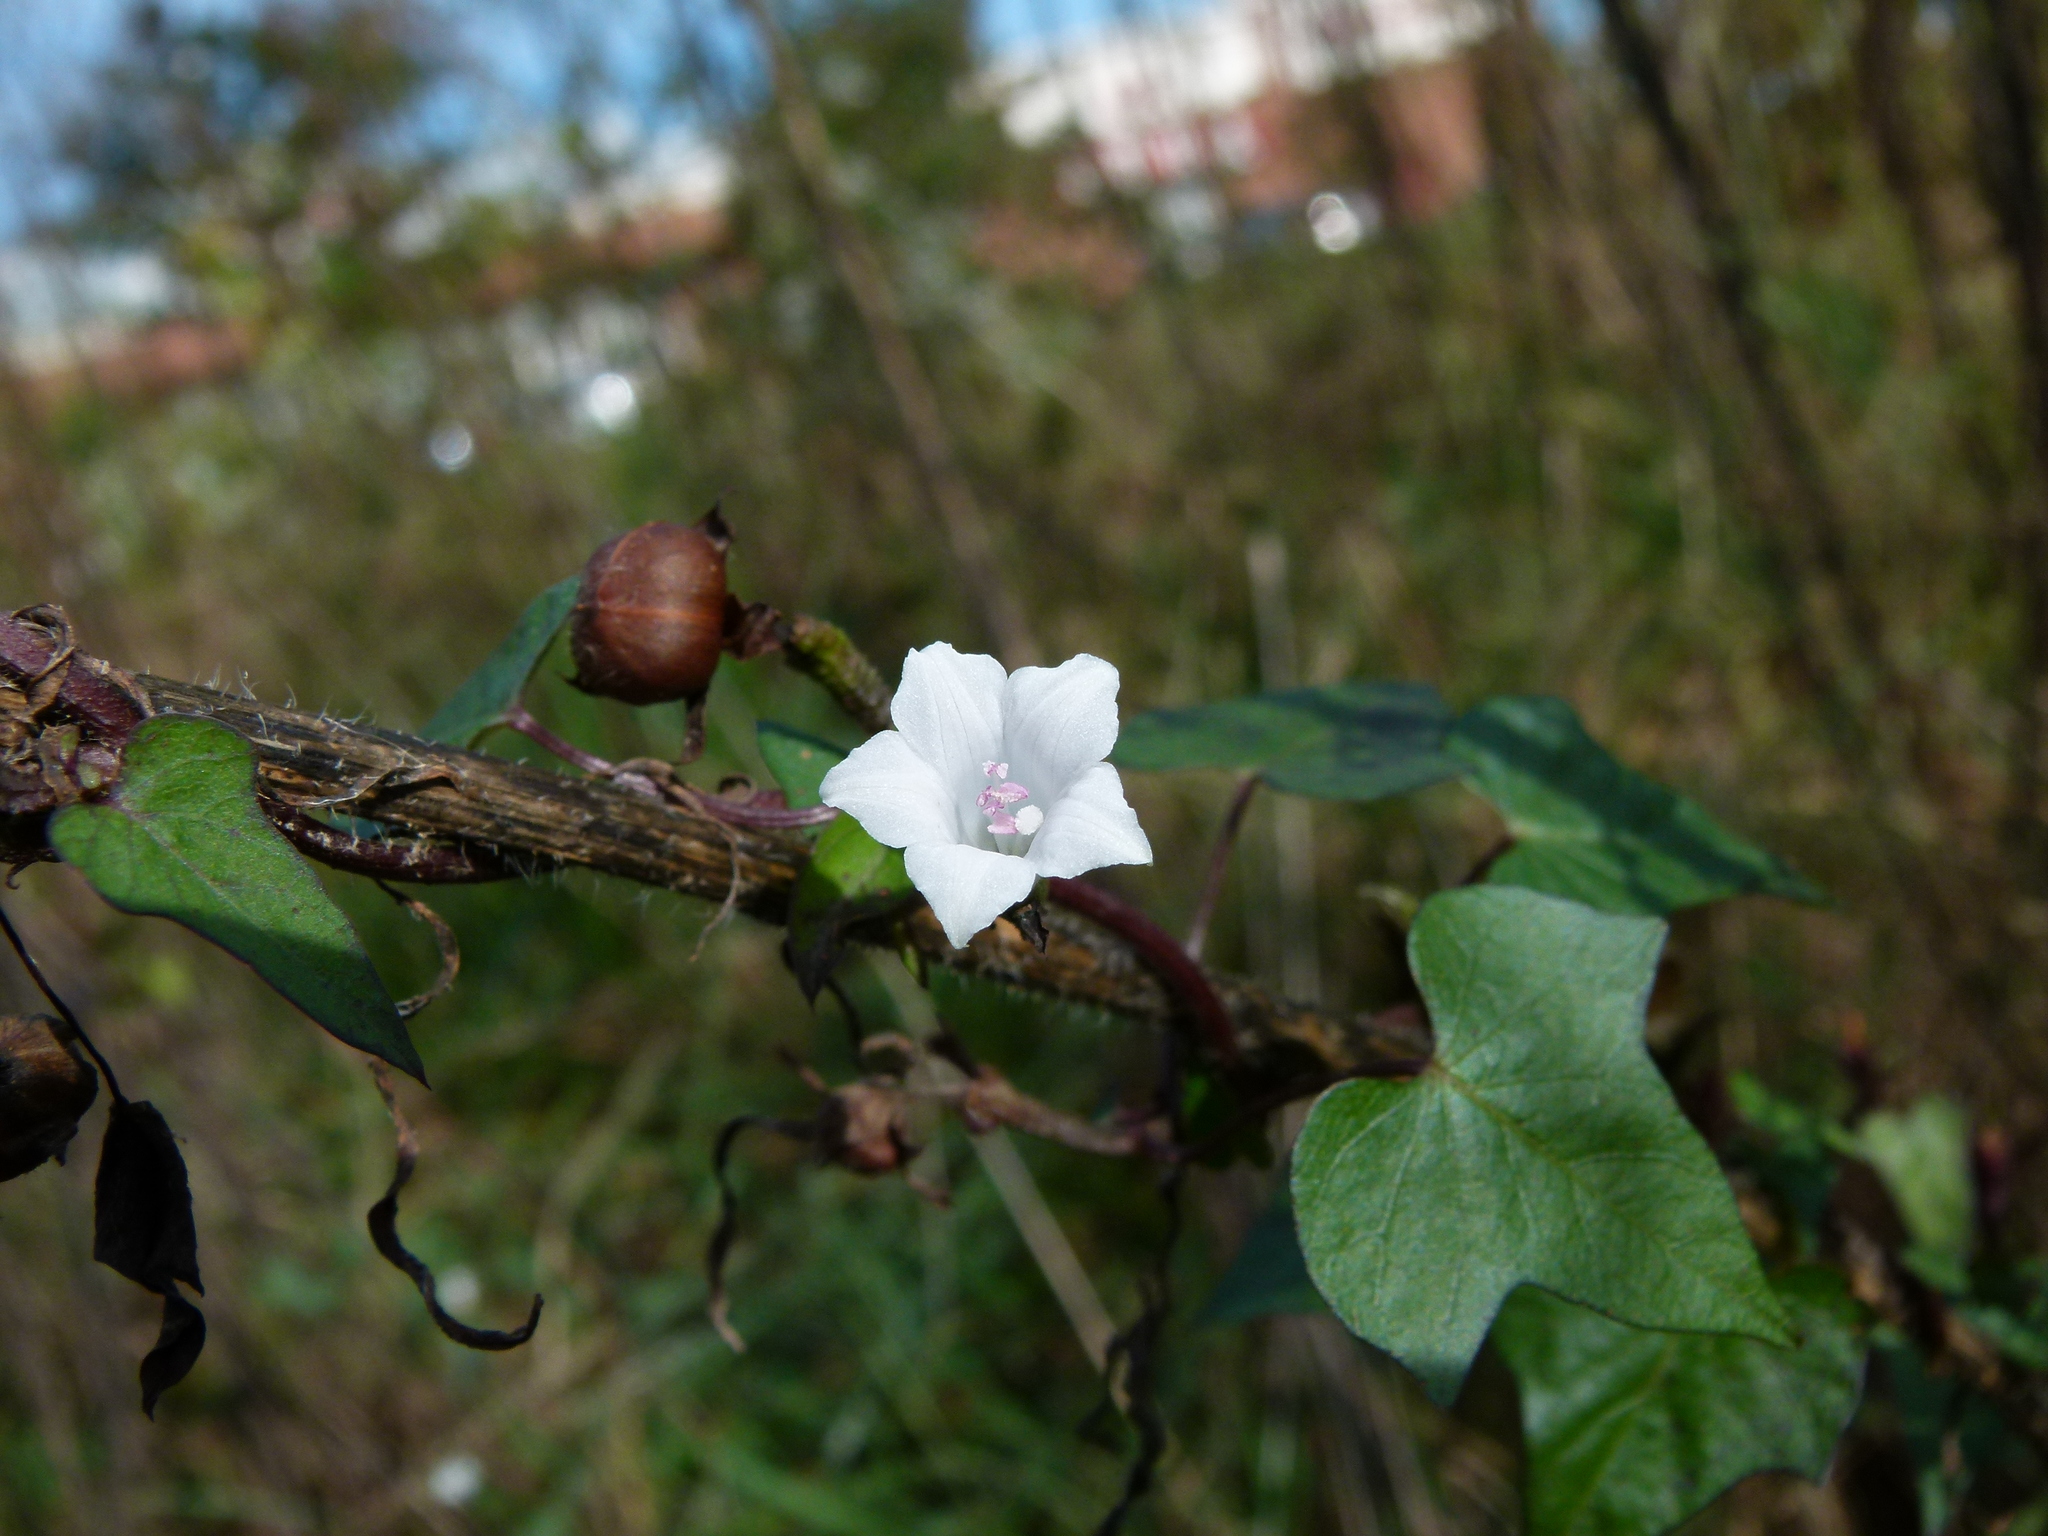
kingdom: Plantae
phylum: Tracheophyta
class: Magnoliopsida
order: Solanales
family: Convolvulaceae
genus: Ipomoea
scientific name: Ipomoea lacunosa
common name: White morning-glory
